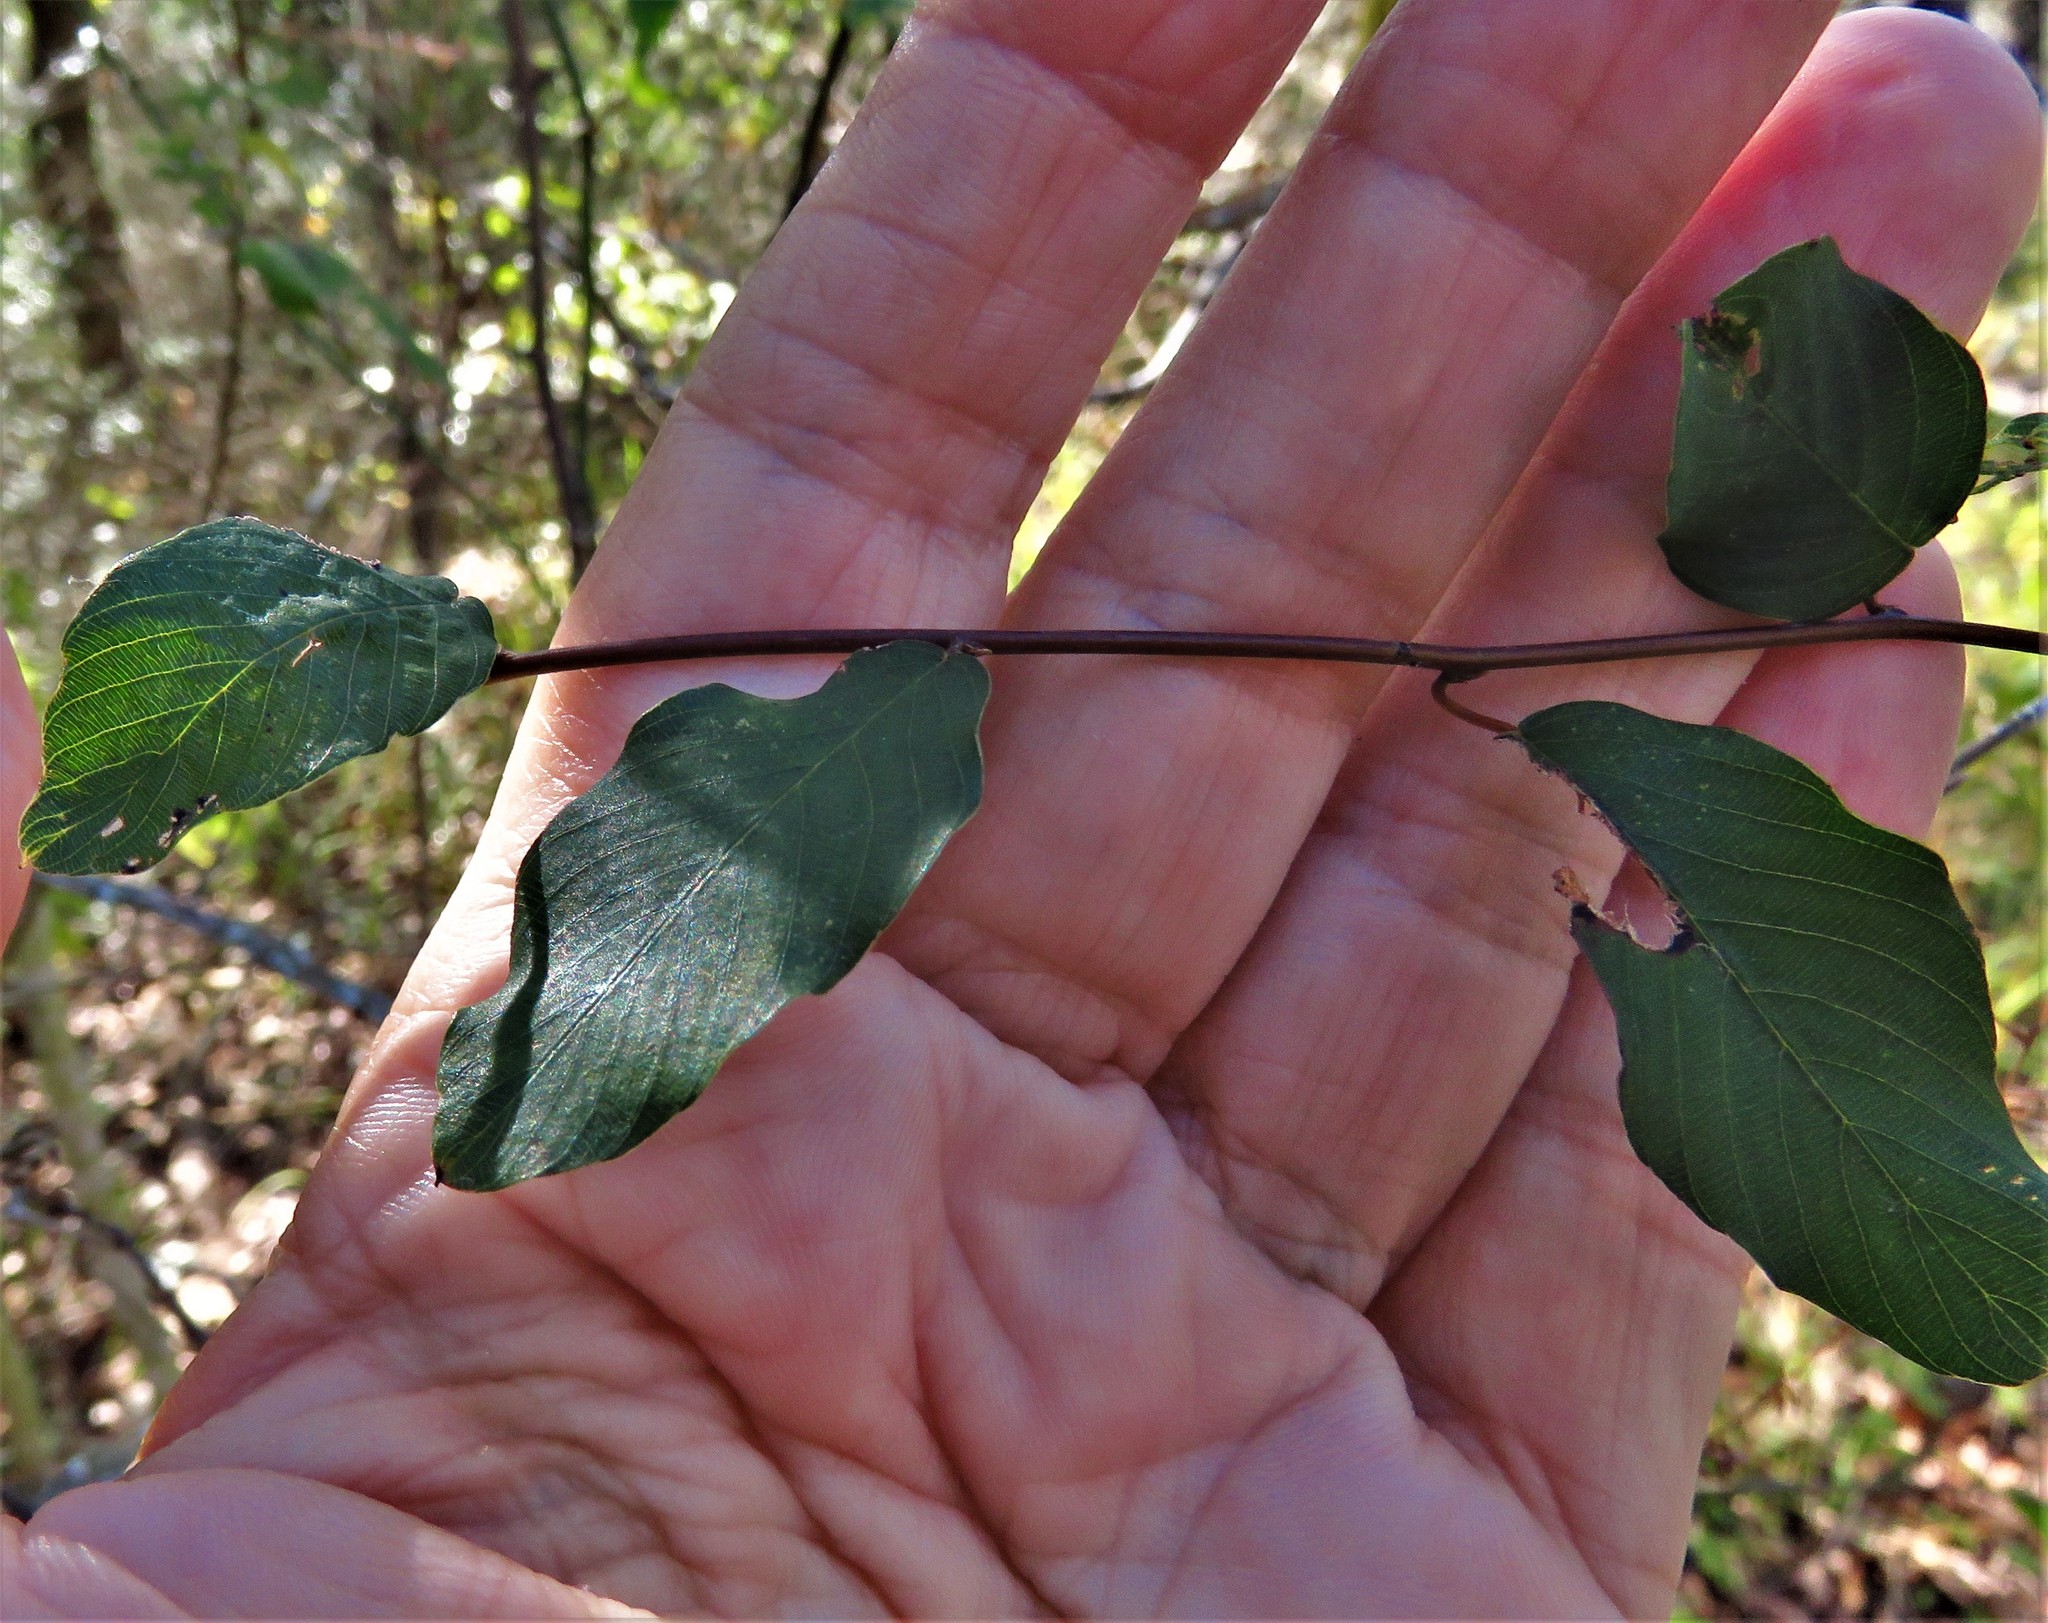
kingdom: Plantae
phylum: Tracheophyta
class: Magnoliopsida
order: Rosales
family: Rhamnaceae
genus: Berchemia
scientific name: Berchemia scandens
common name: Supplejack
